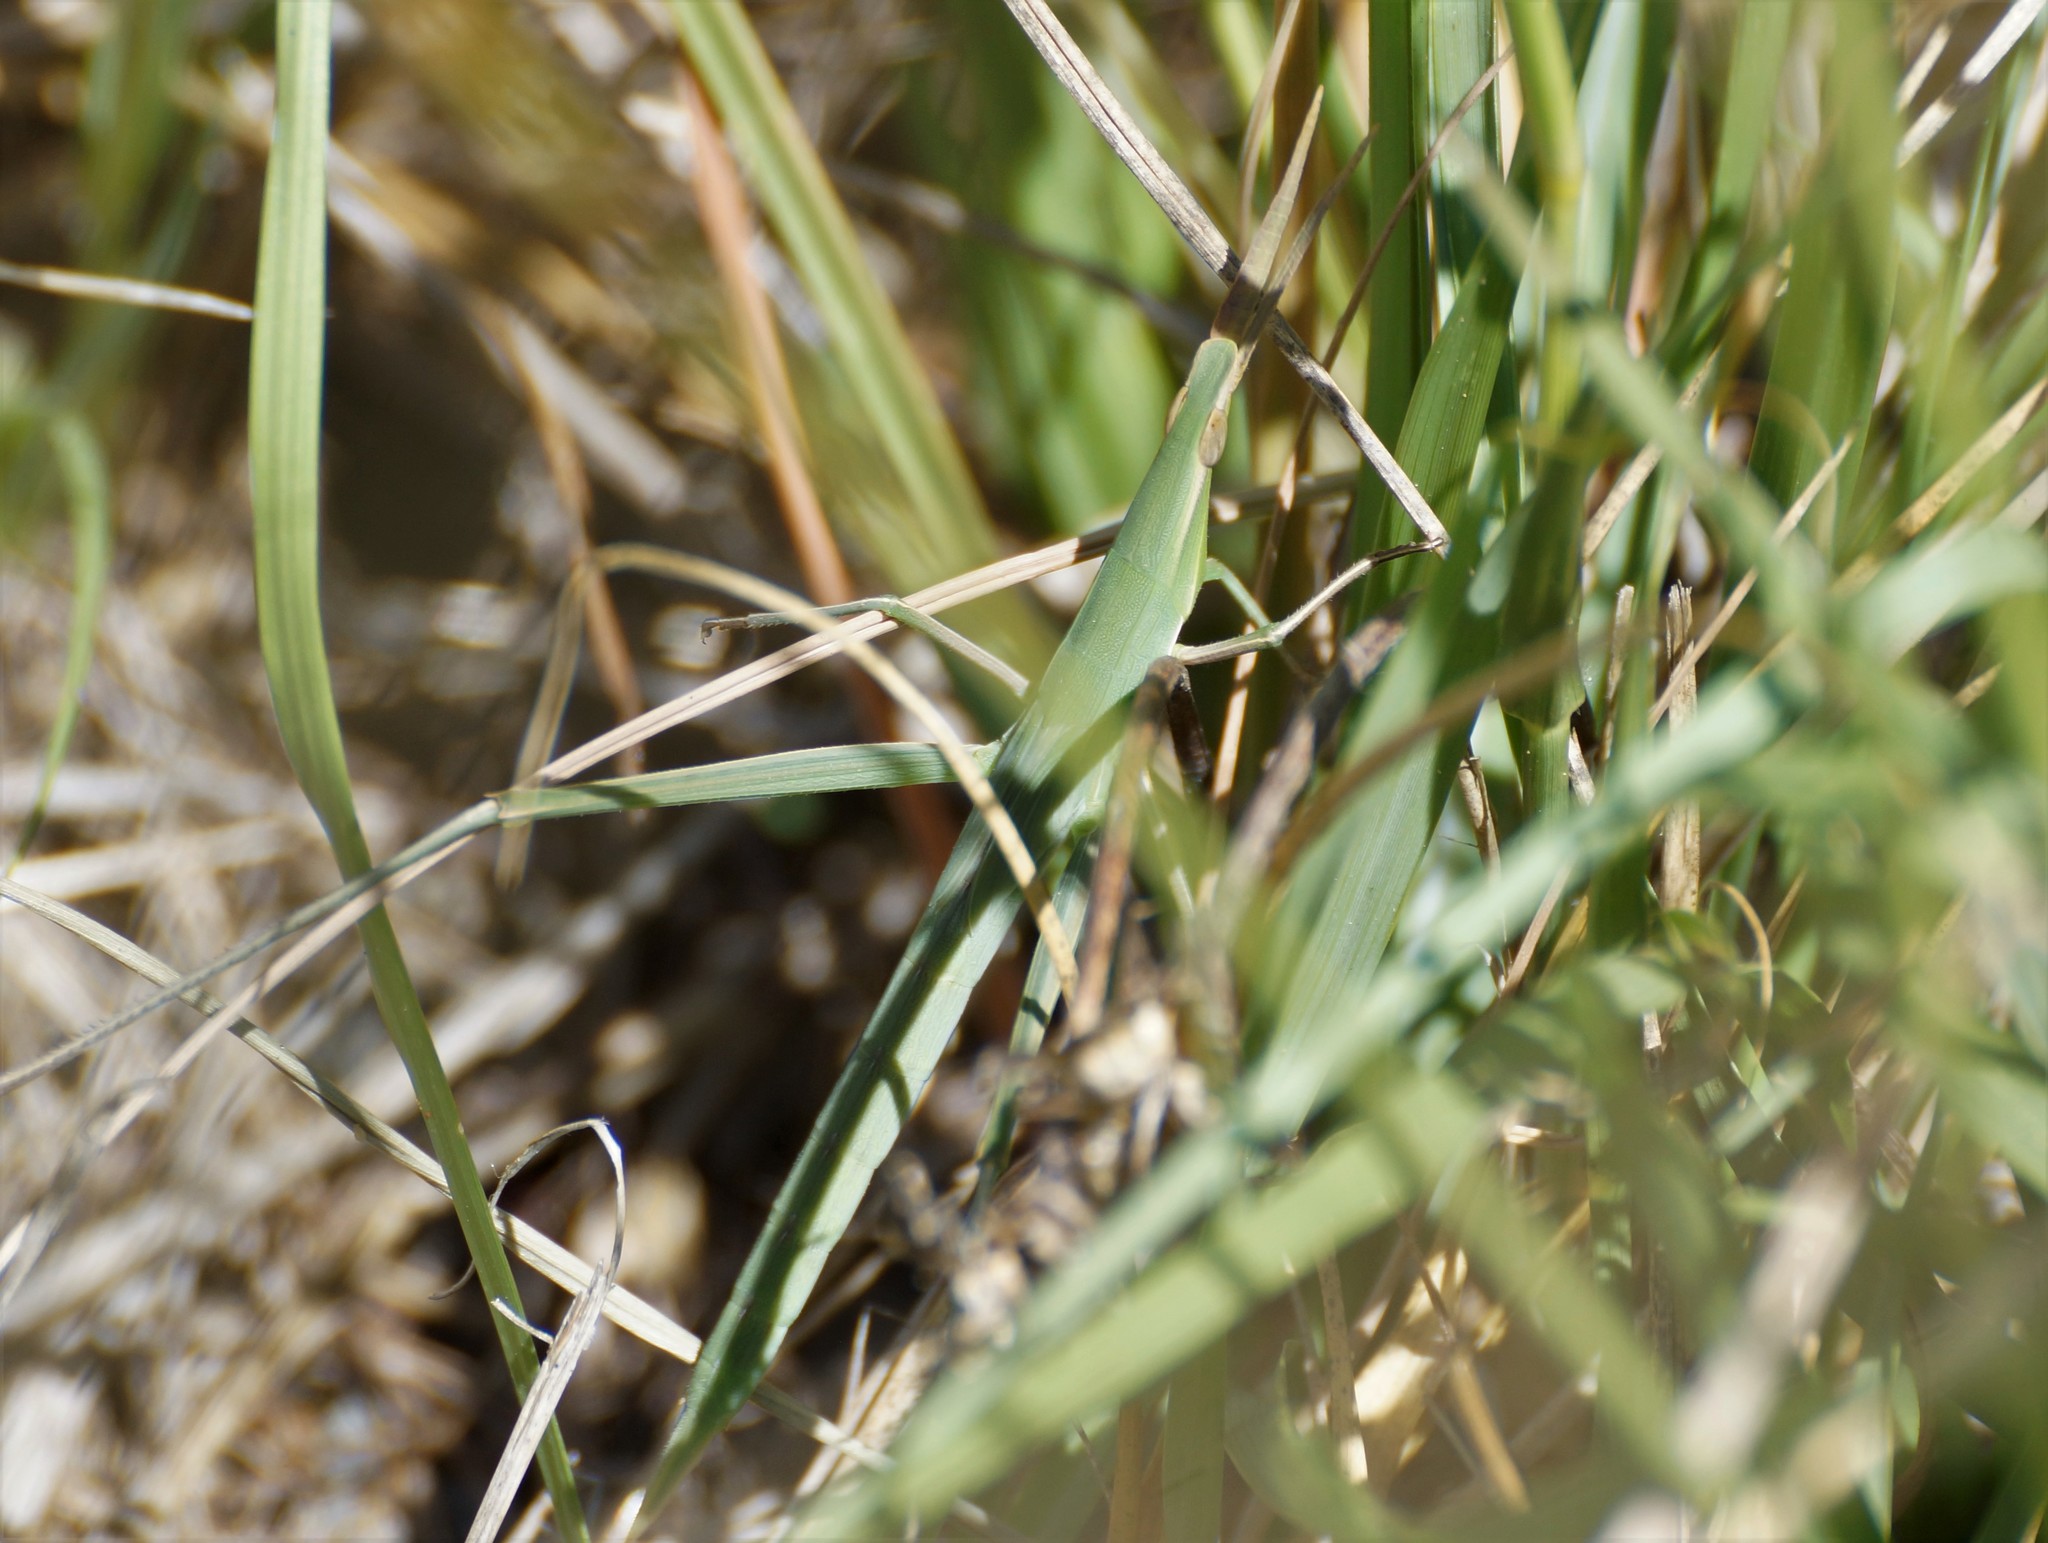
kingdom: Animalia
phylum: Arthropoda
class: Insecta
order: Orthoptera
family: Acrididae
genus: Acrida
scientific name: Acrida conica
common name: Giant green slantface
